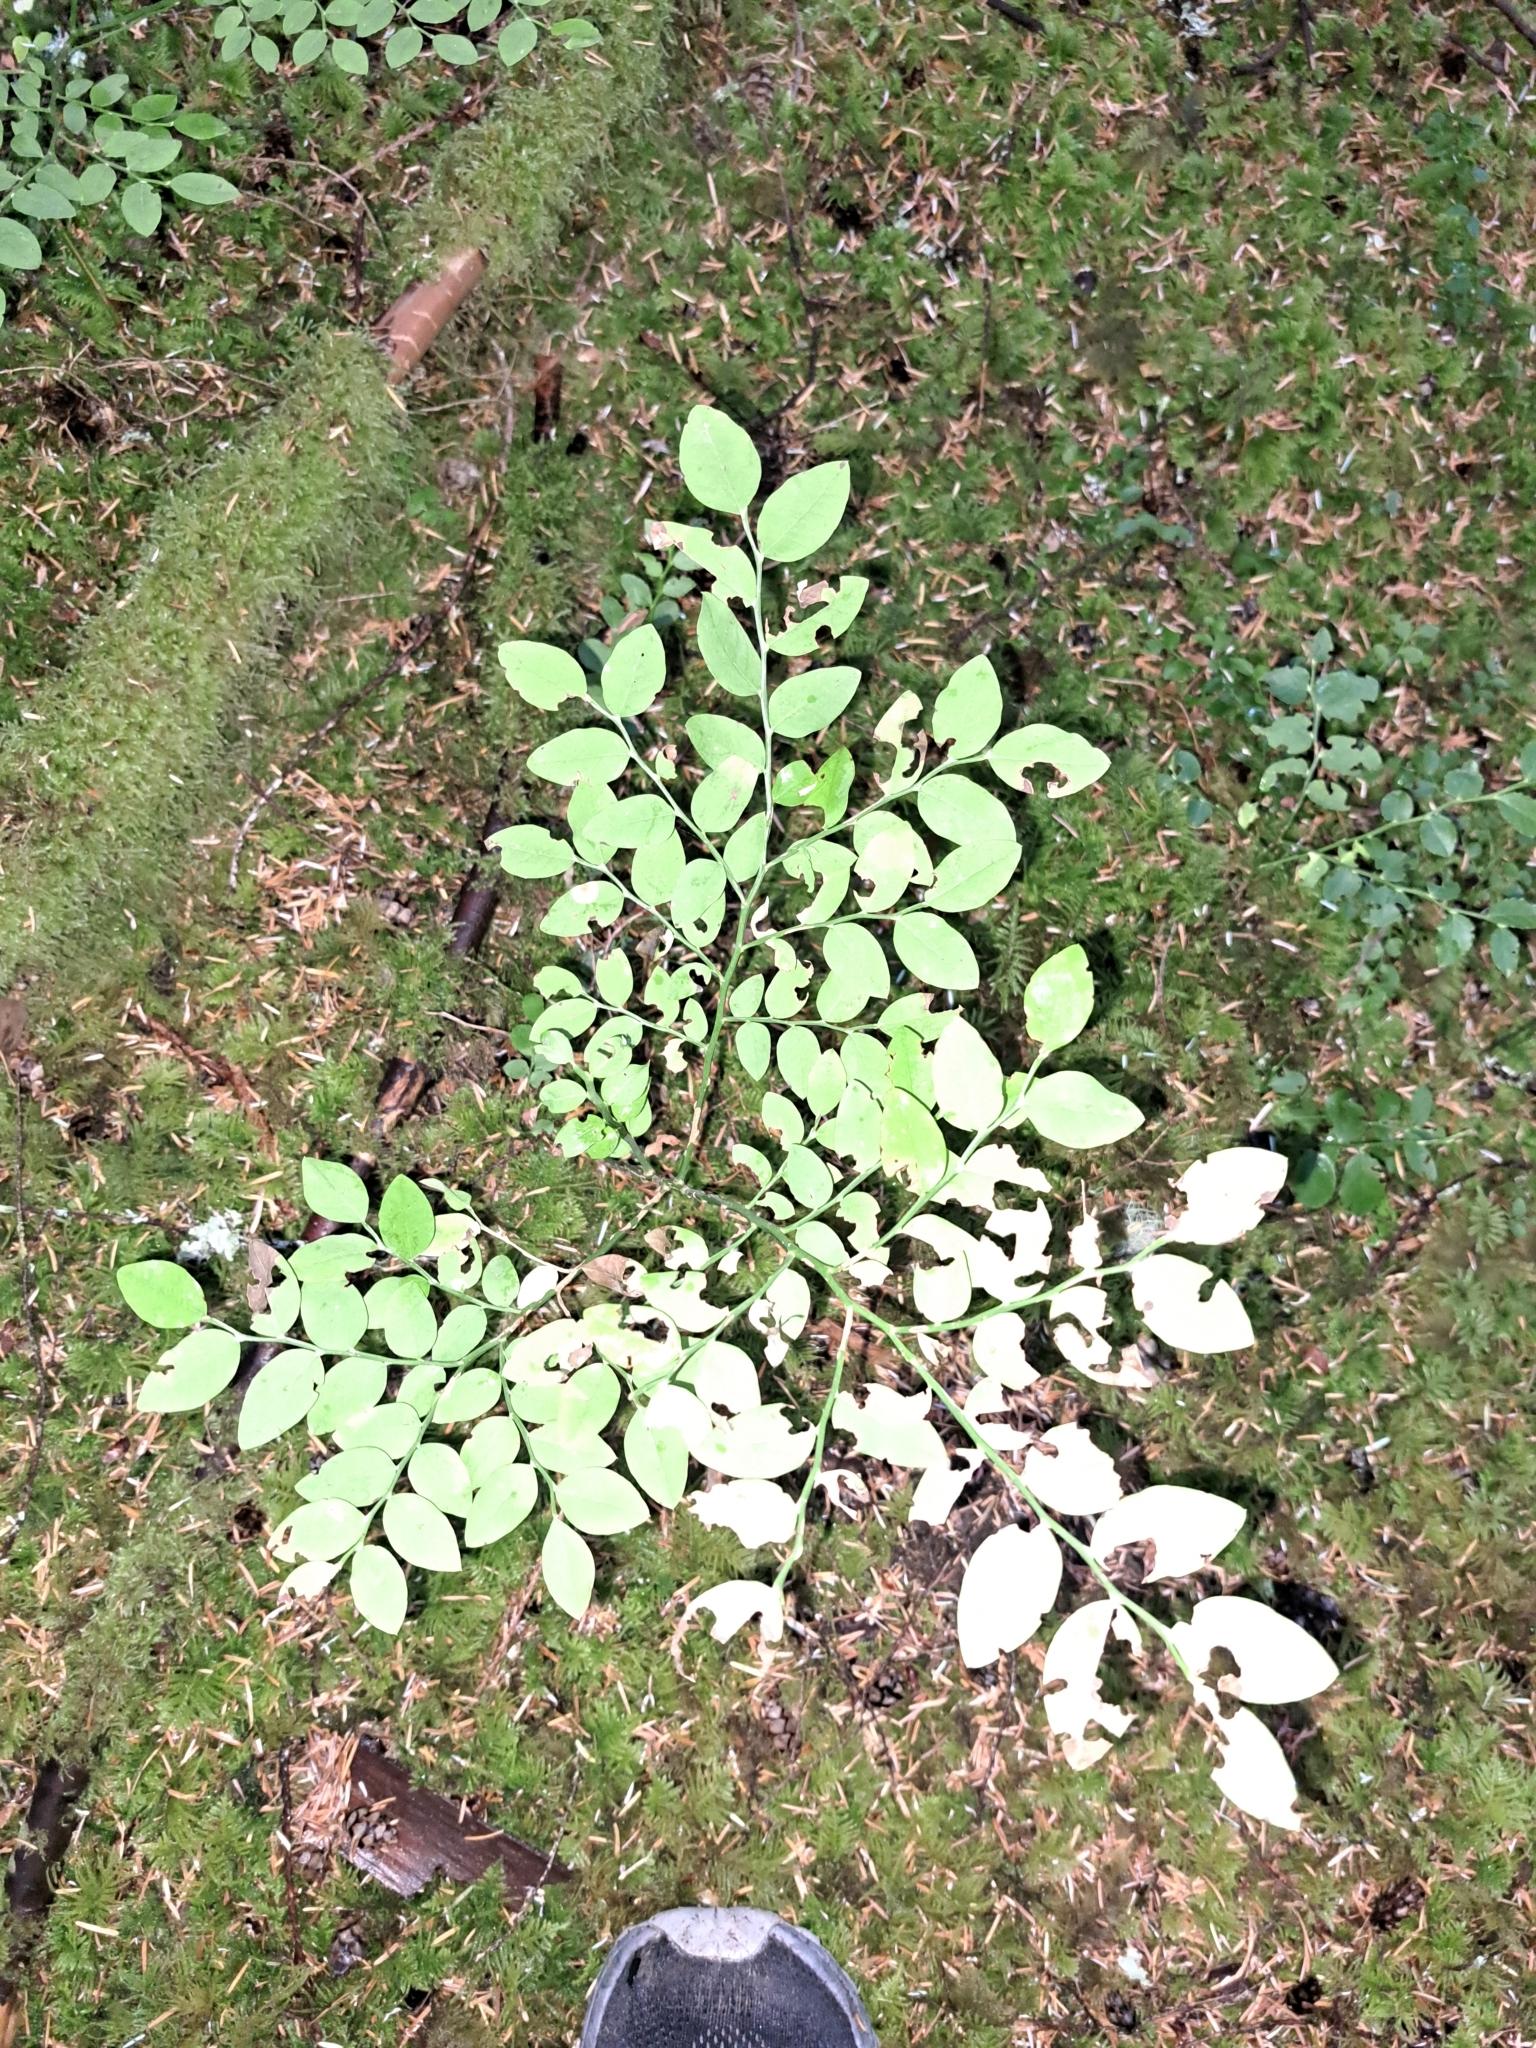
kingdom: Plantae
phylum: Tracheophyta
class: Magnoliopsida
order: Ericales
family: Ericaceae
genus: Vaccinium
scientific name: Vaccinium parvifolium
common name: Red-huckleberry
